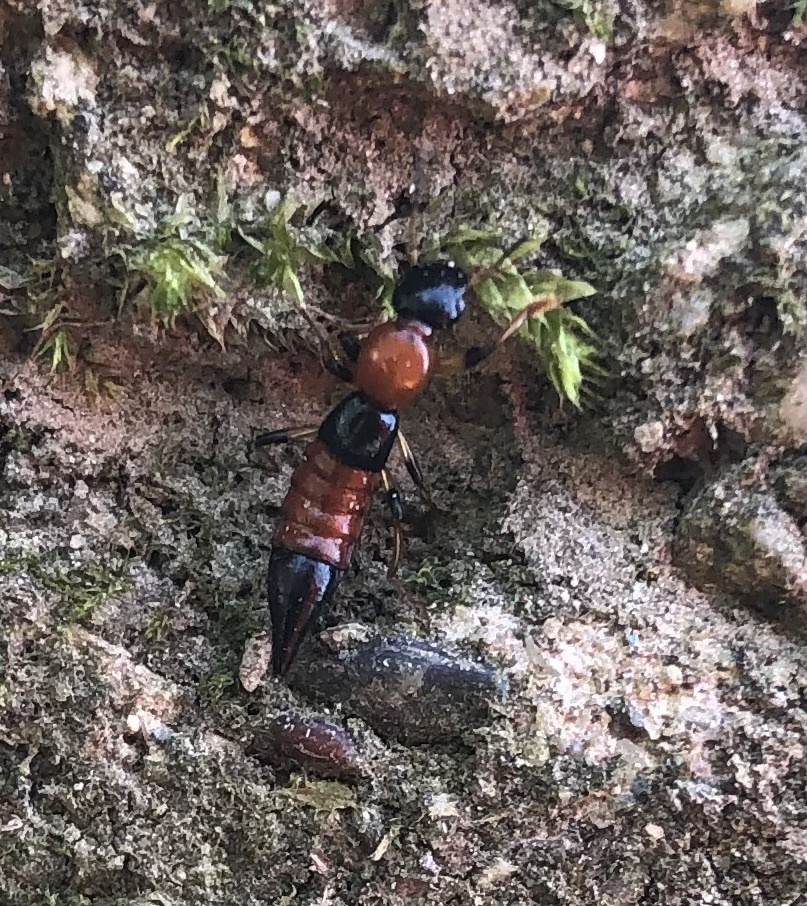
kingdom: Animalia
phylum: Arthropoda
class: Insecta
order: Coleoptera
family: Staphylinidae
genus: Paederus
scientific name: Paederus littoralis
